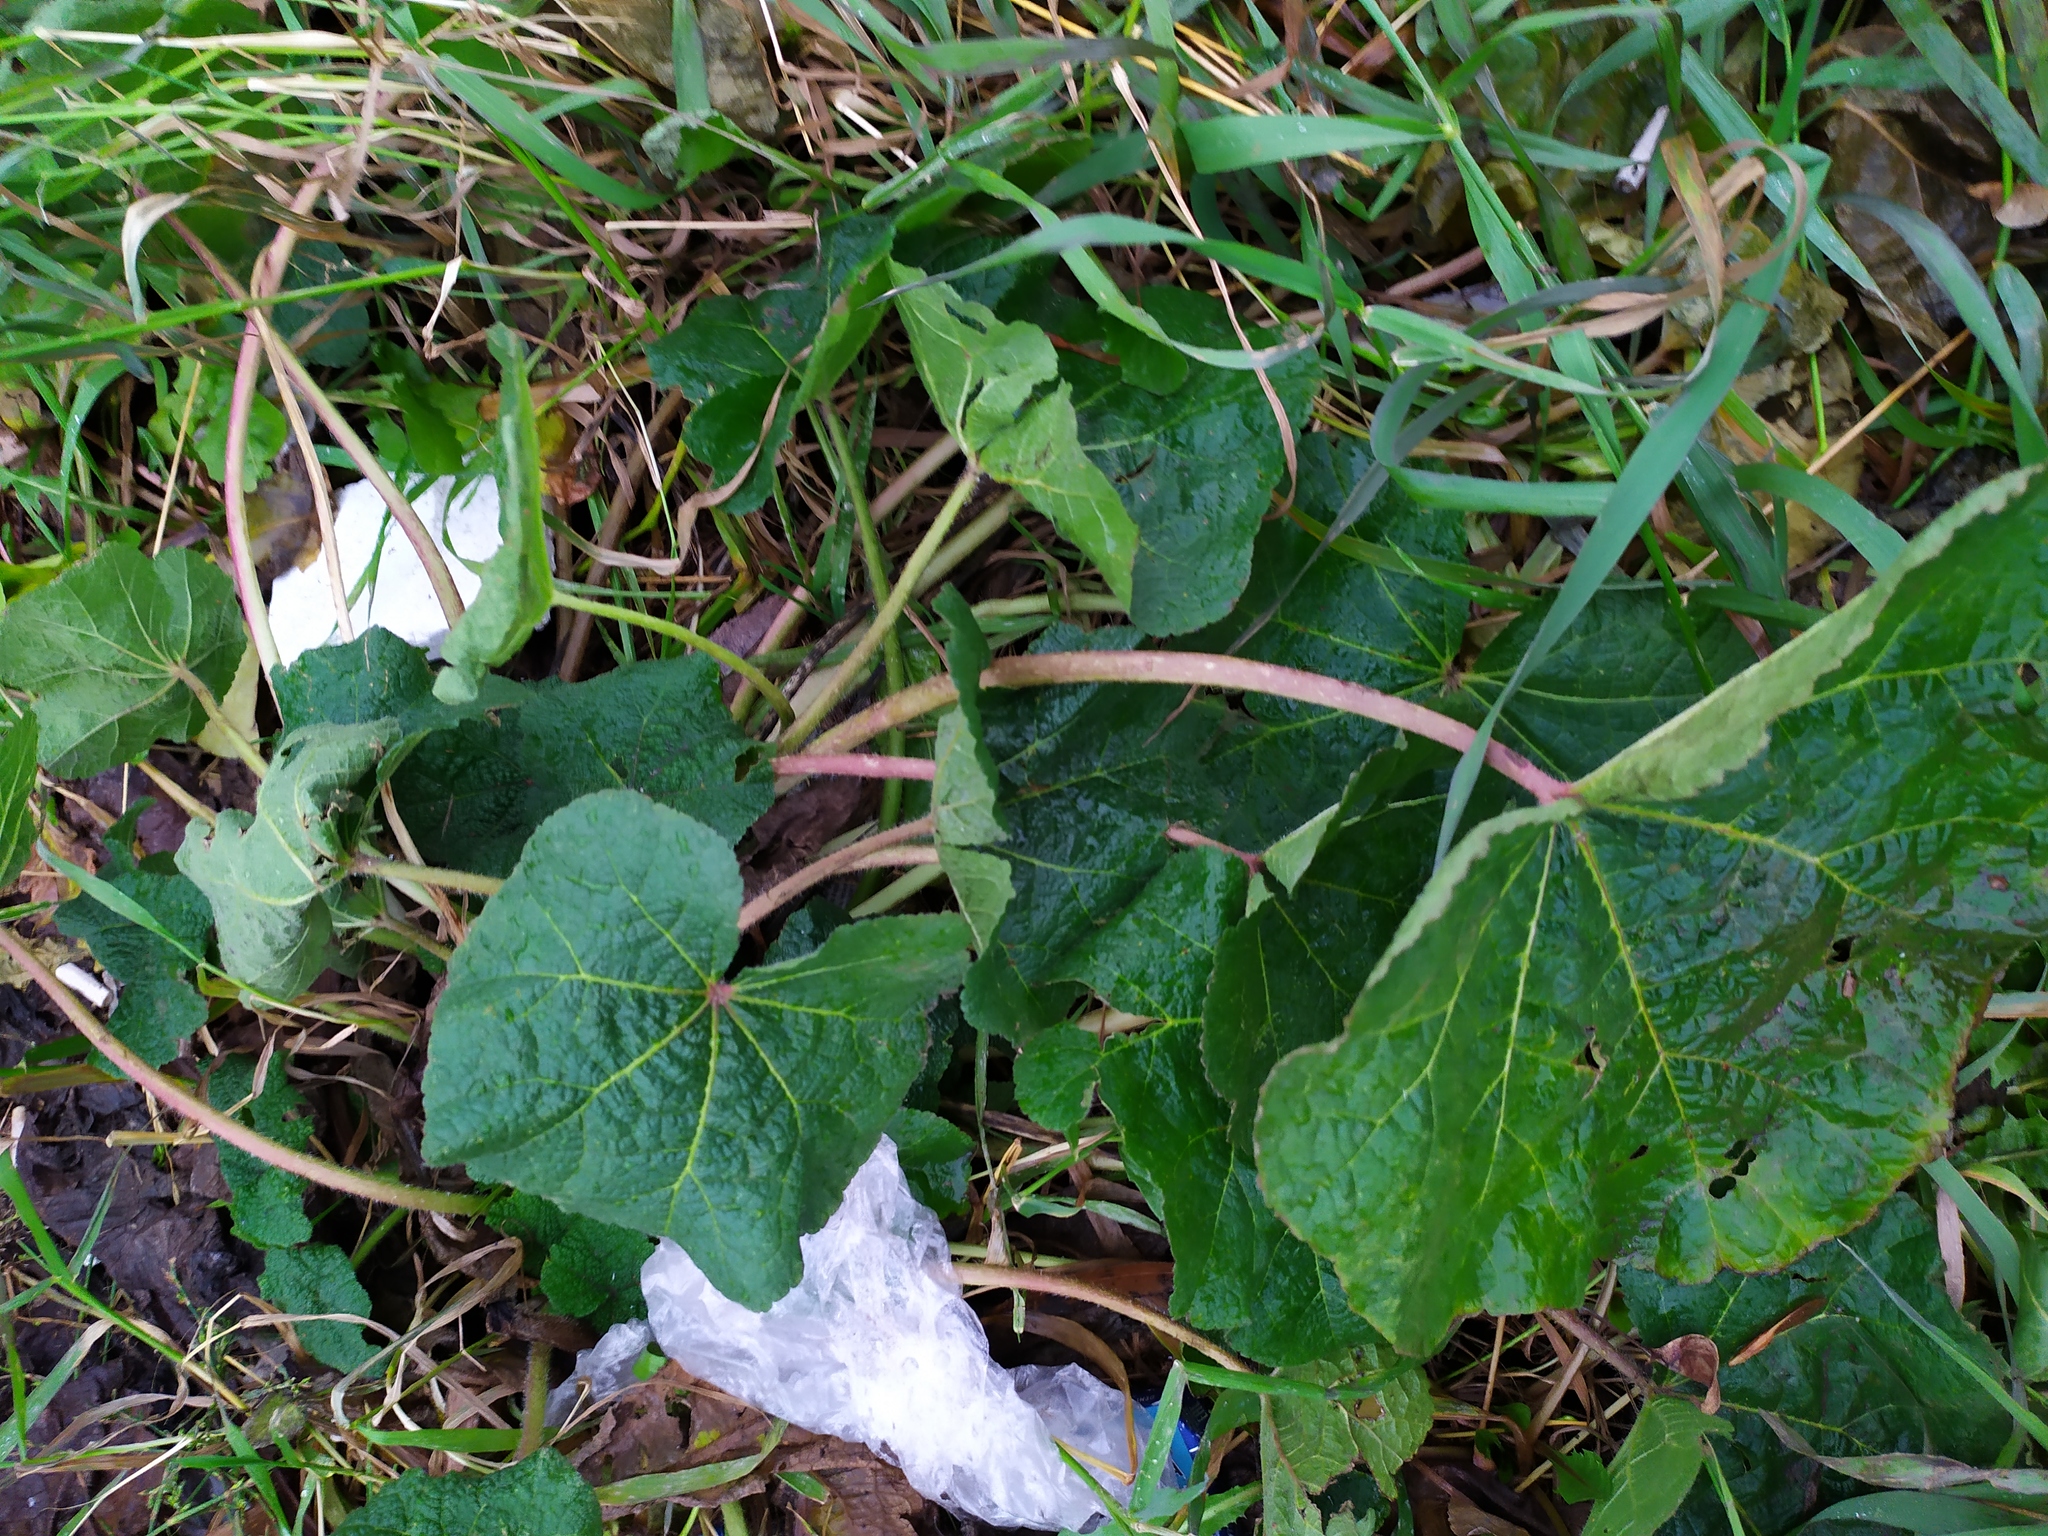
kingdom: Plantae
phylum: Tracheophyta
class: Magnoliopsida
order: Malvales
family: Malvaceae
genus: Alcea
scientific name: Alcea rosea
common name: Hollyhock
